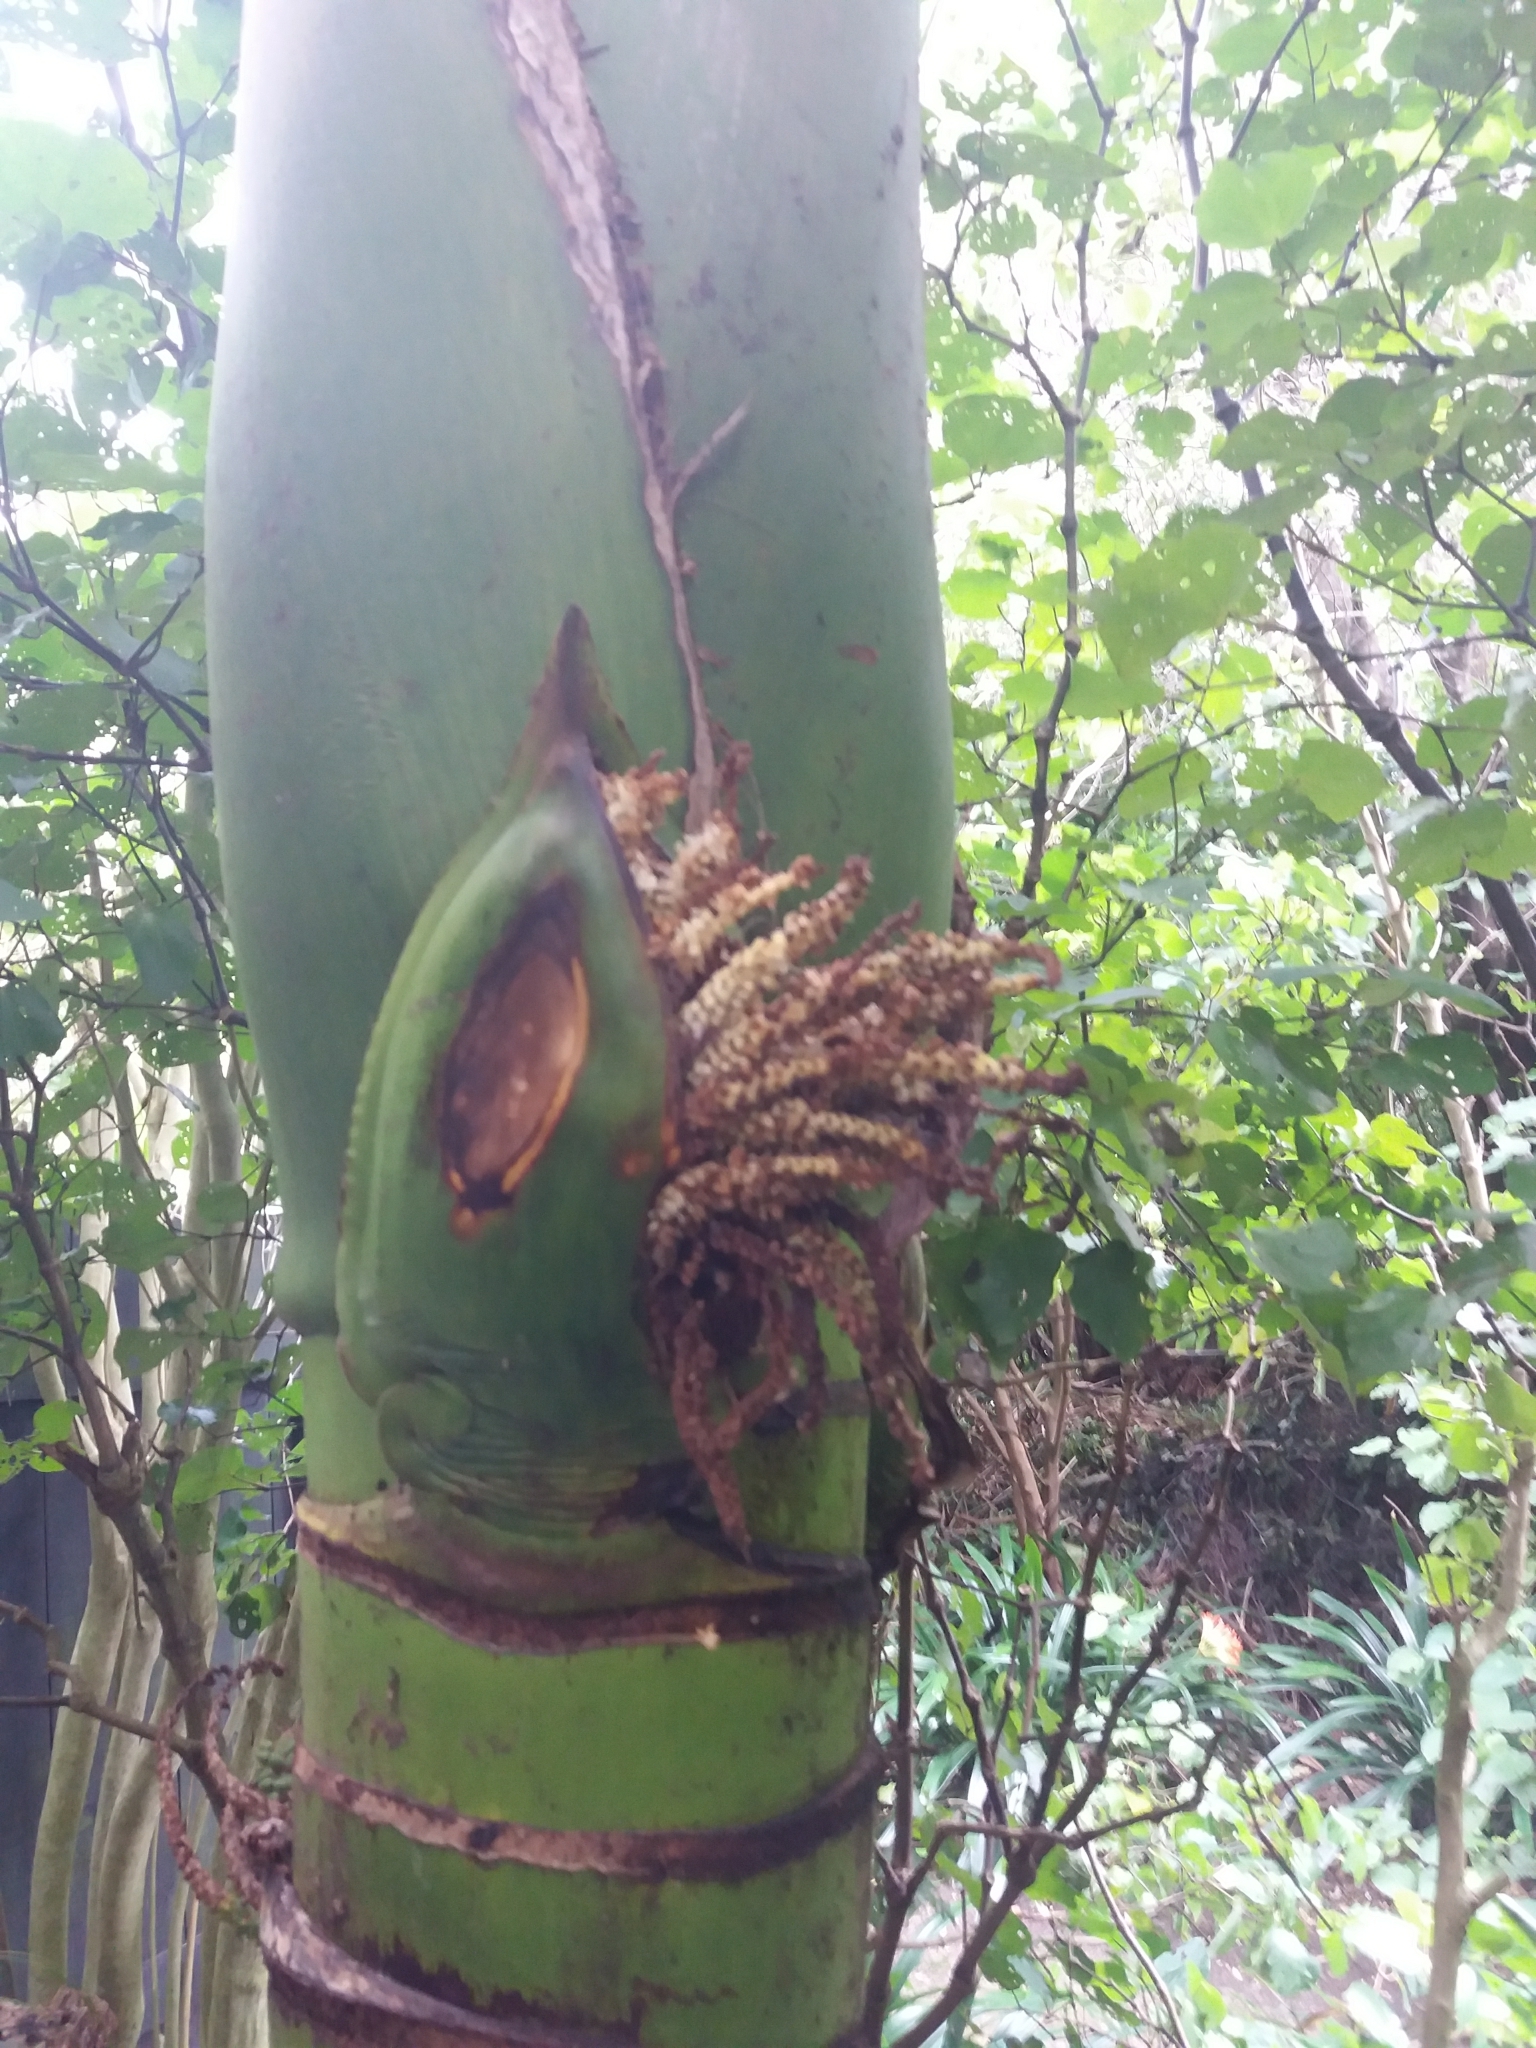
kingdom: Plantae
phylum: Tracheophyta
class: Liliopsida
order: Arecales
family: Arecaceae
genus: Rhopalostylis
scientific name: Rhopalostylis sapida
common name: Feather-duster palm
